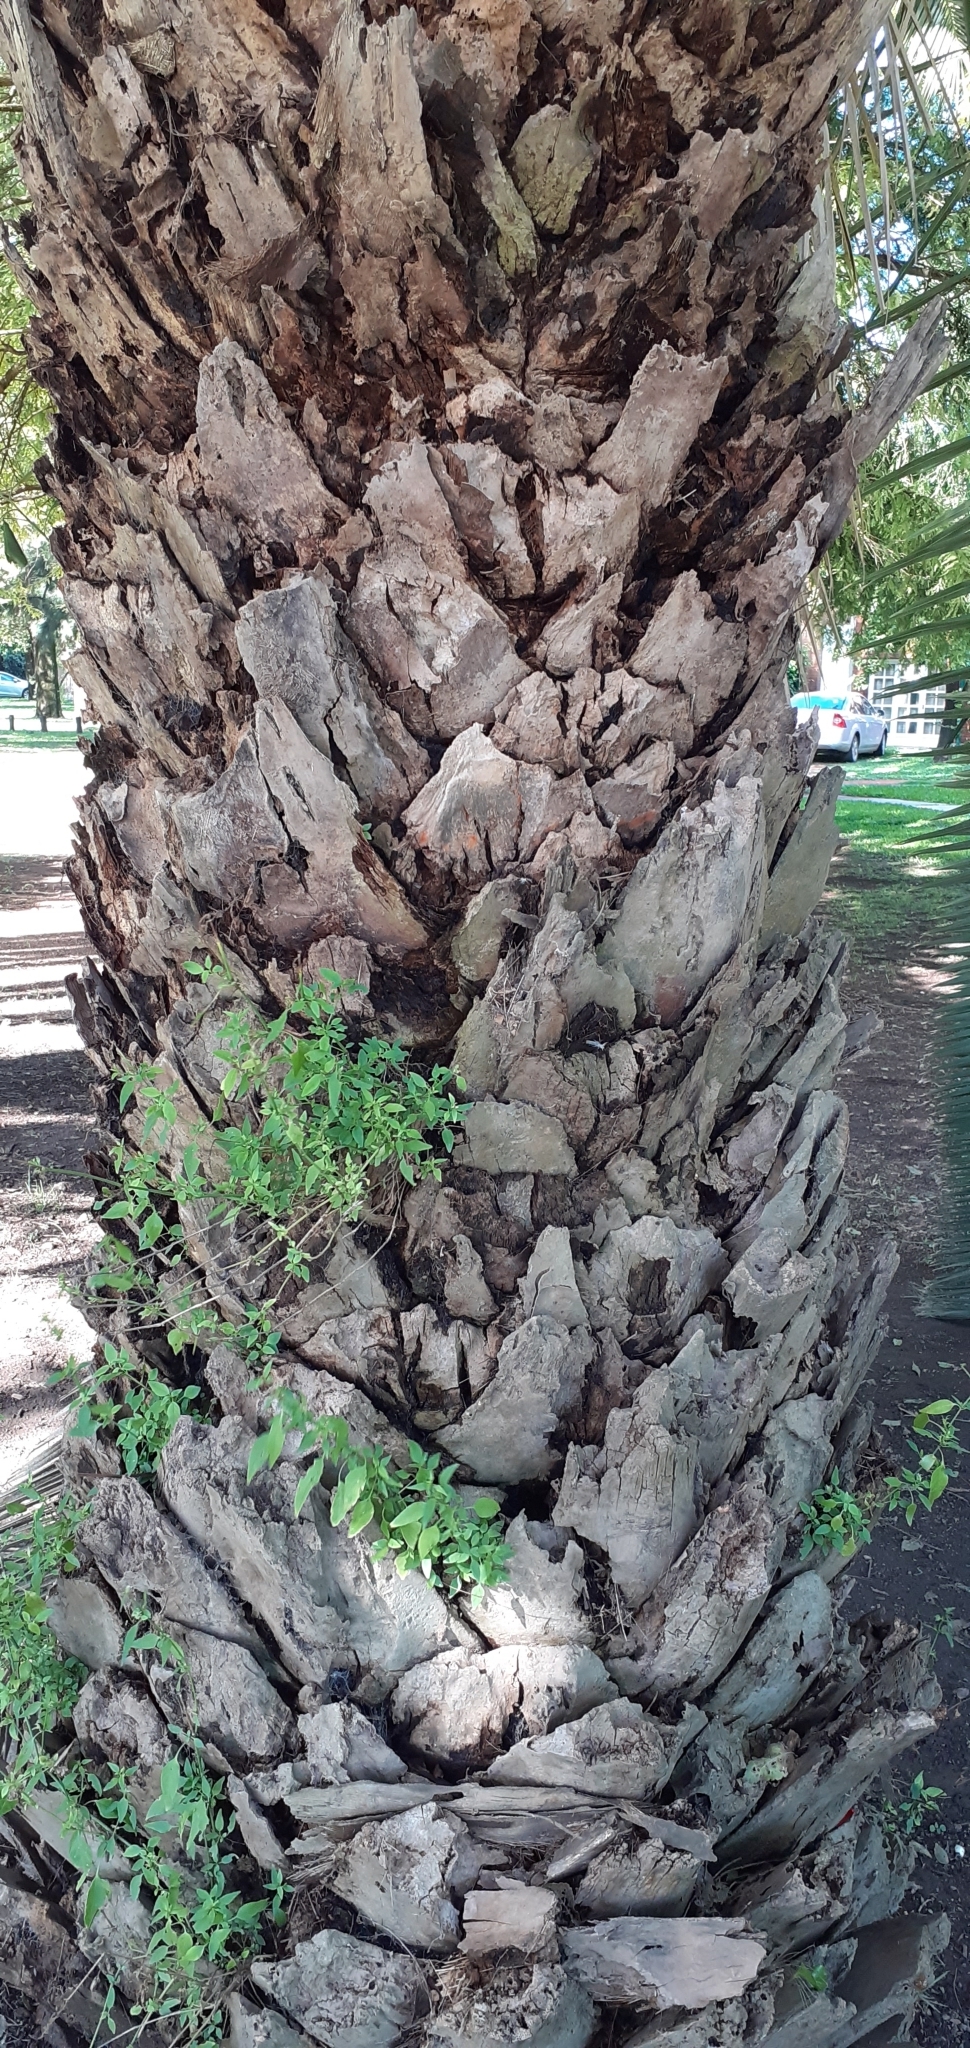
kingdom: Plantae
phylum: Tracheophyta
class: Liliopsida
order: Arecales
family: Arecaceae
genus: Phoenix
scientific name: Phoenix canariensis
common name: Canary island date palm
